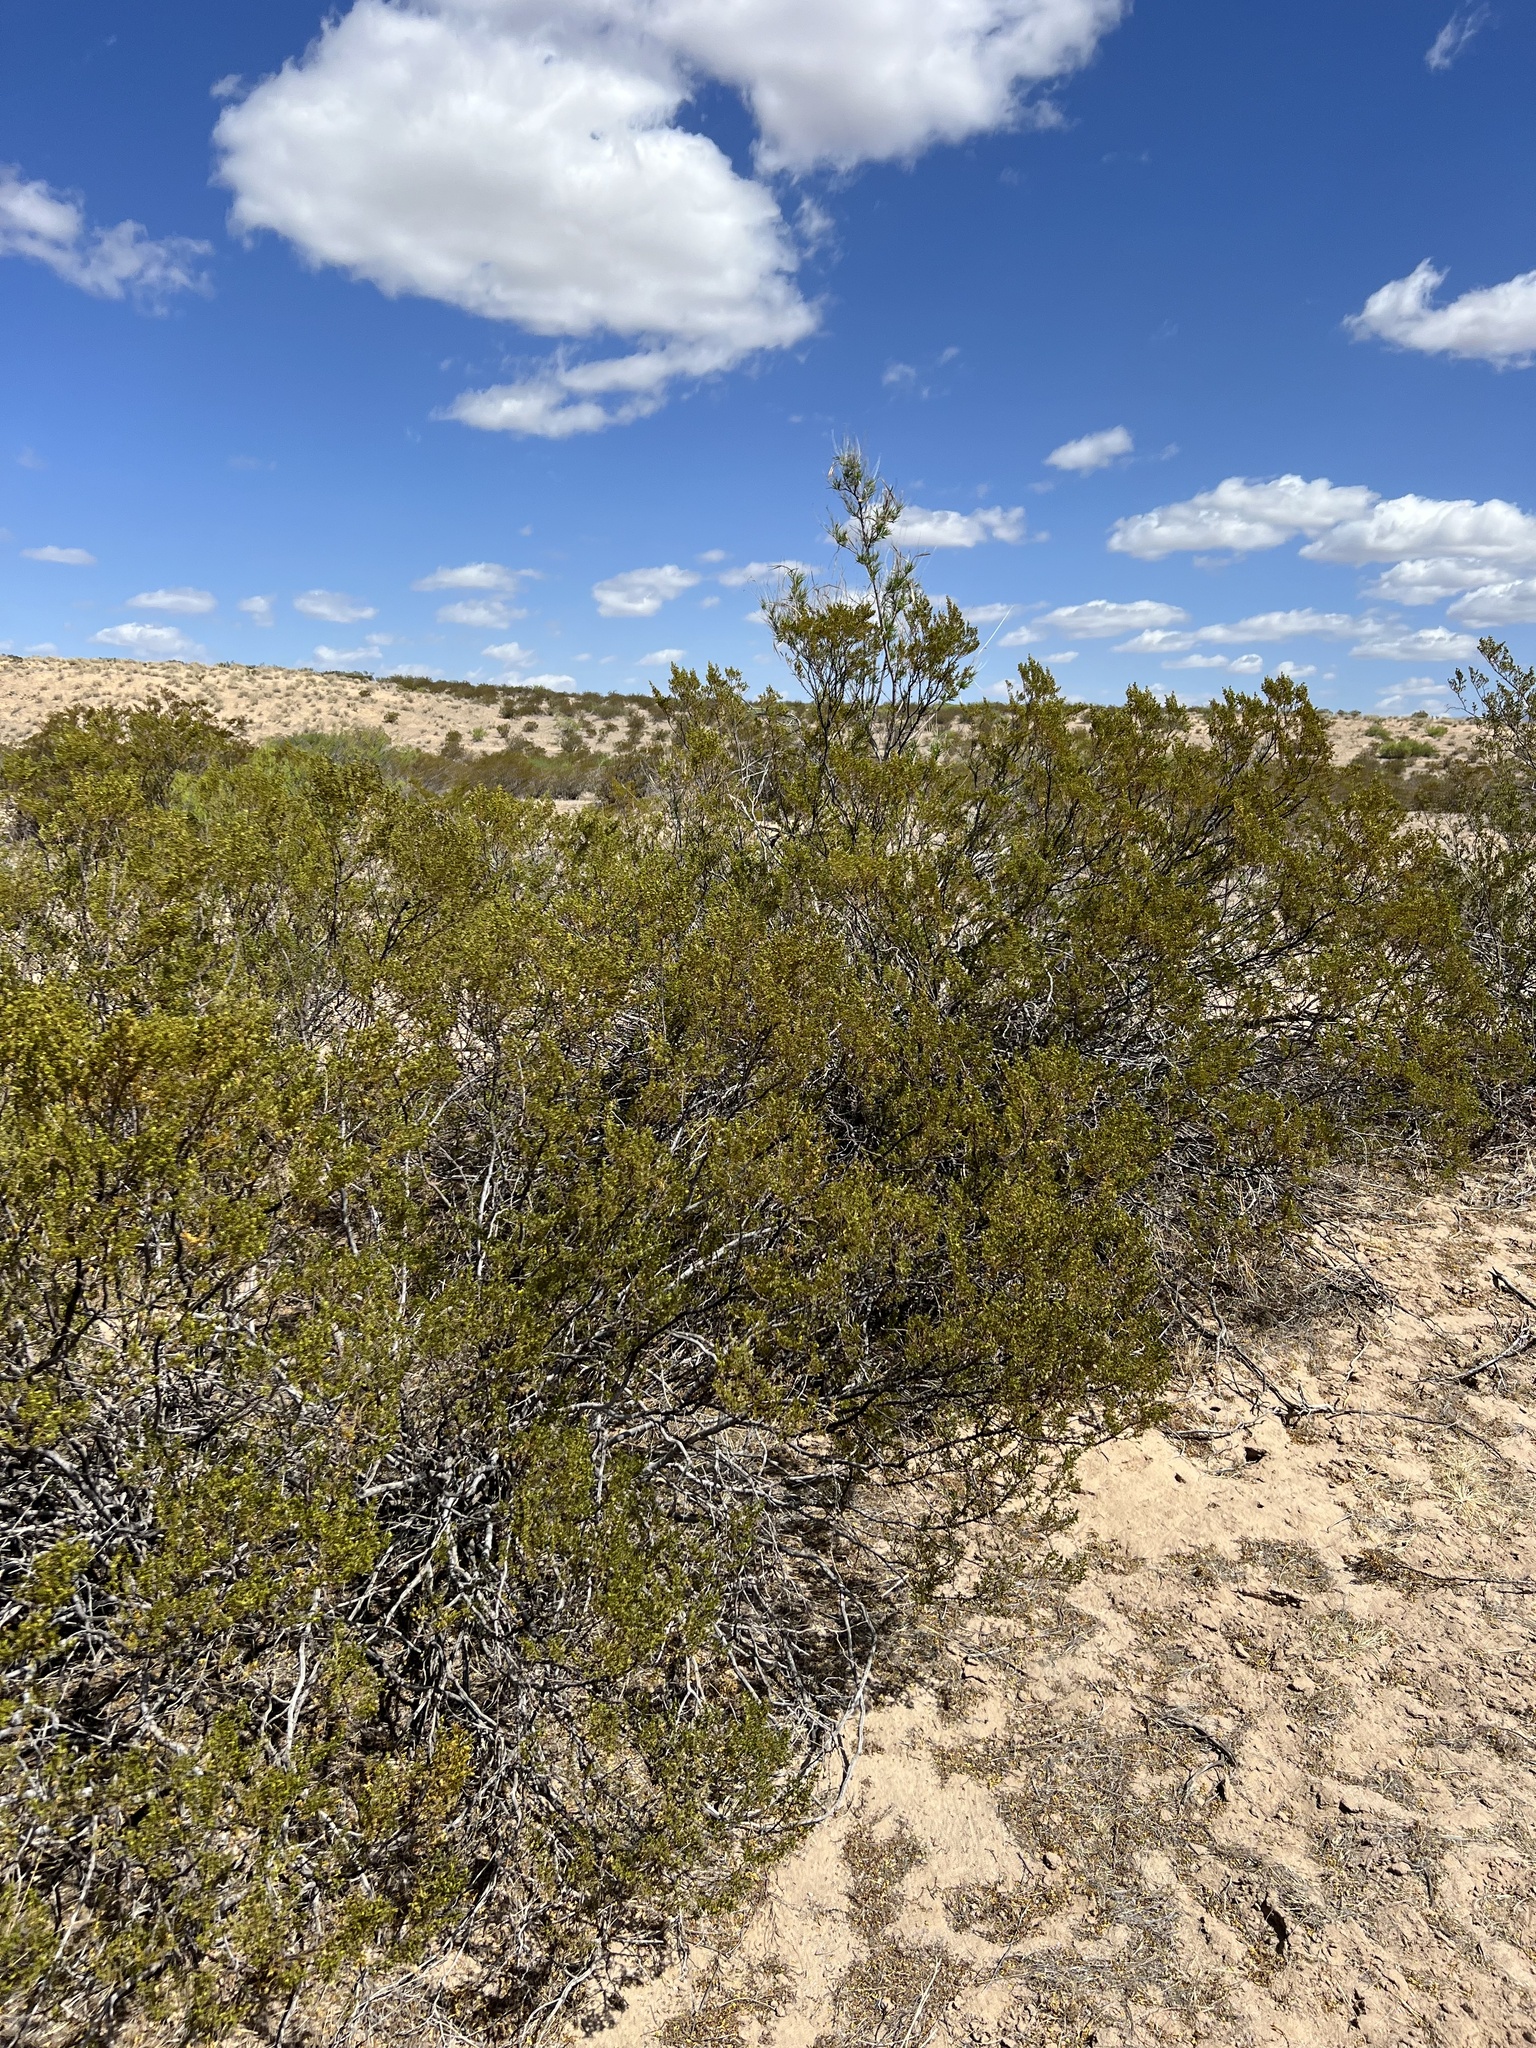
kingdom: Plantae
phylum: Tracheophyta
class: Magnoliopsida
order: Zygophyllales
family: Zygophyllaceae
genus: Larrea
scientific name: Larrea tridentata
